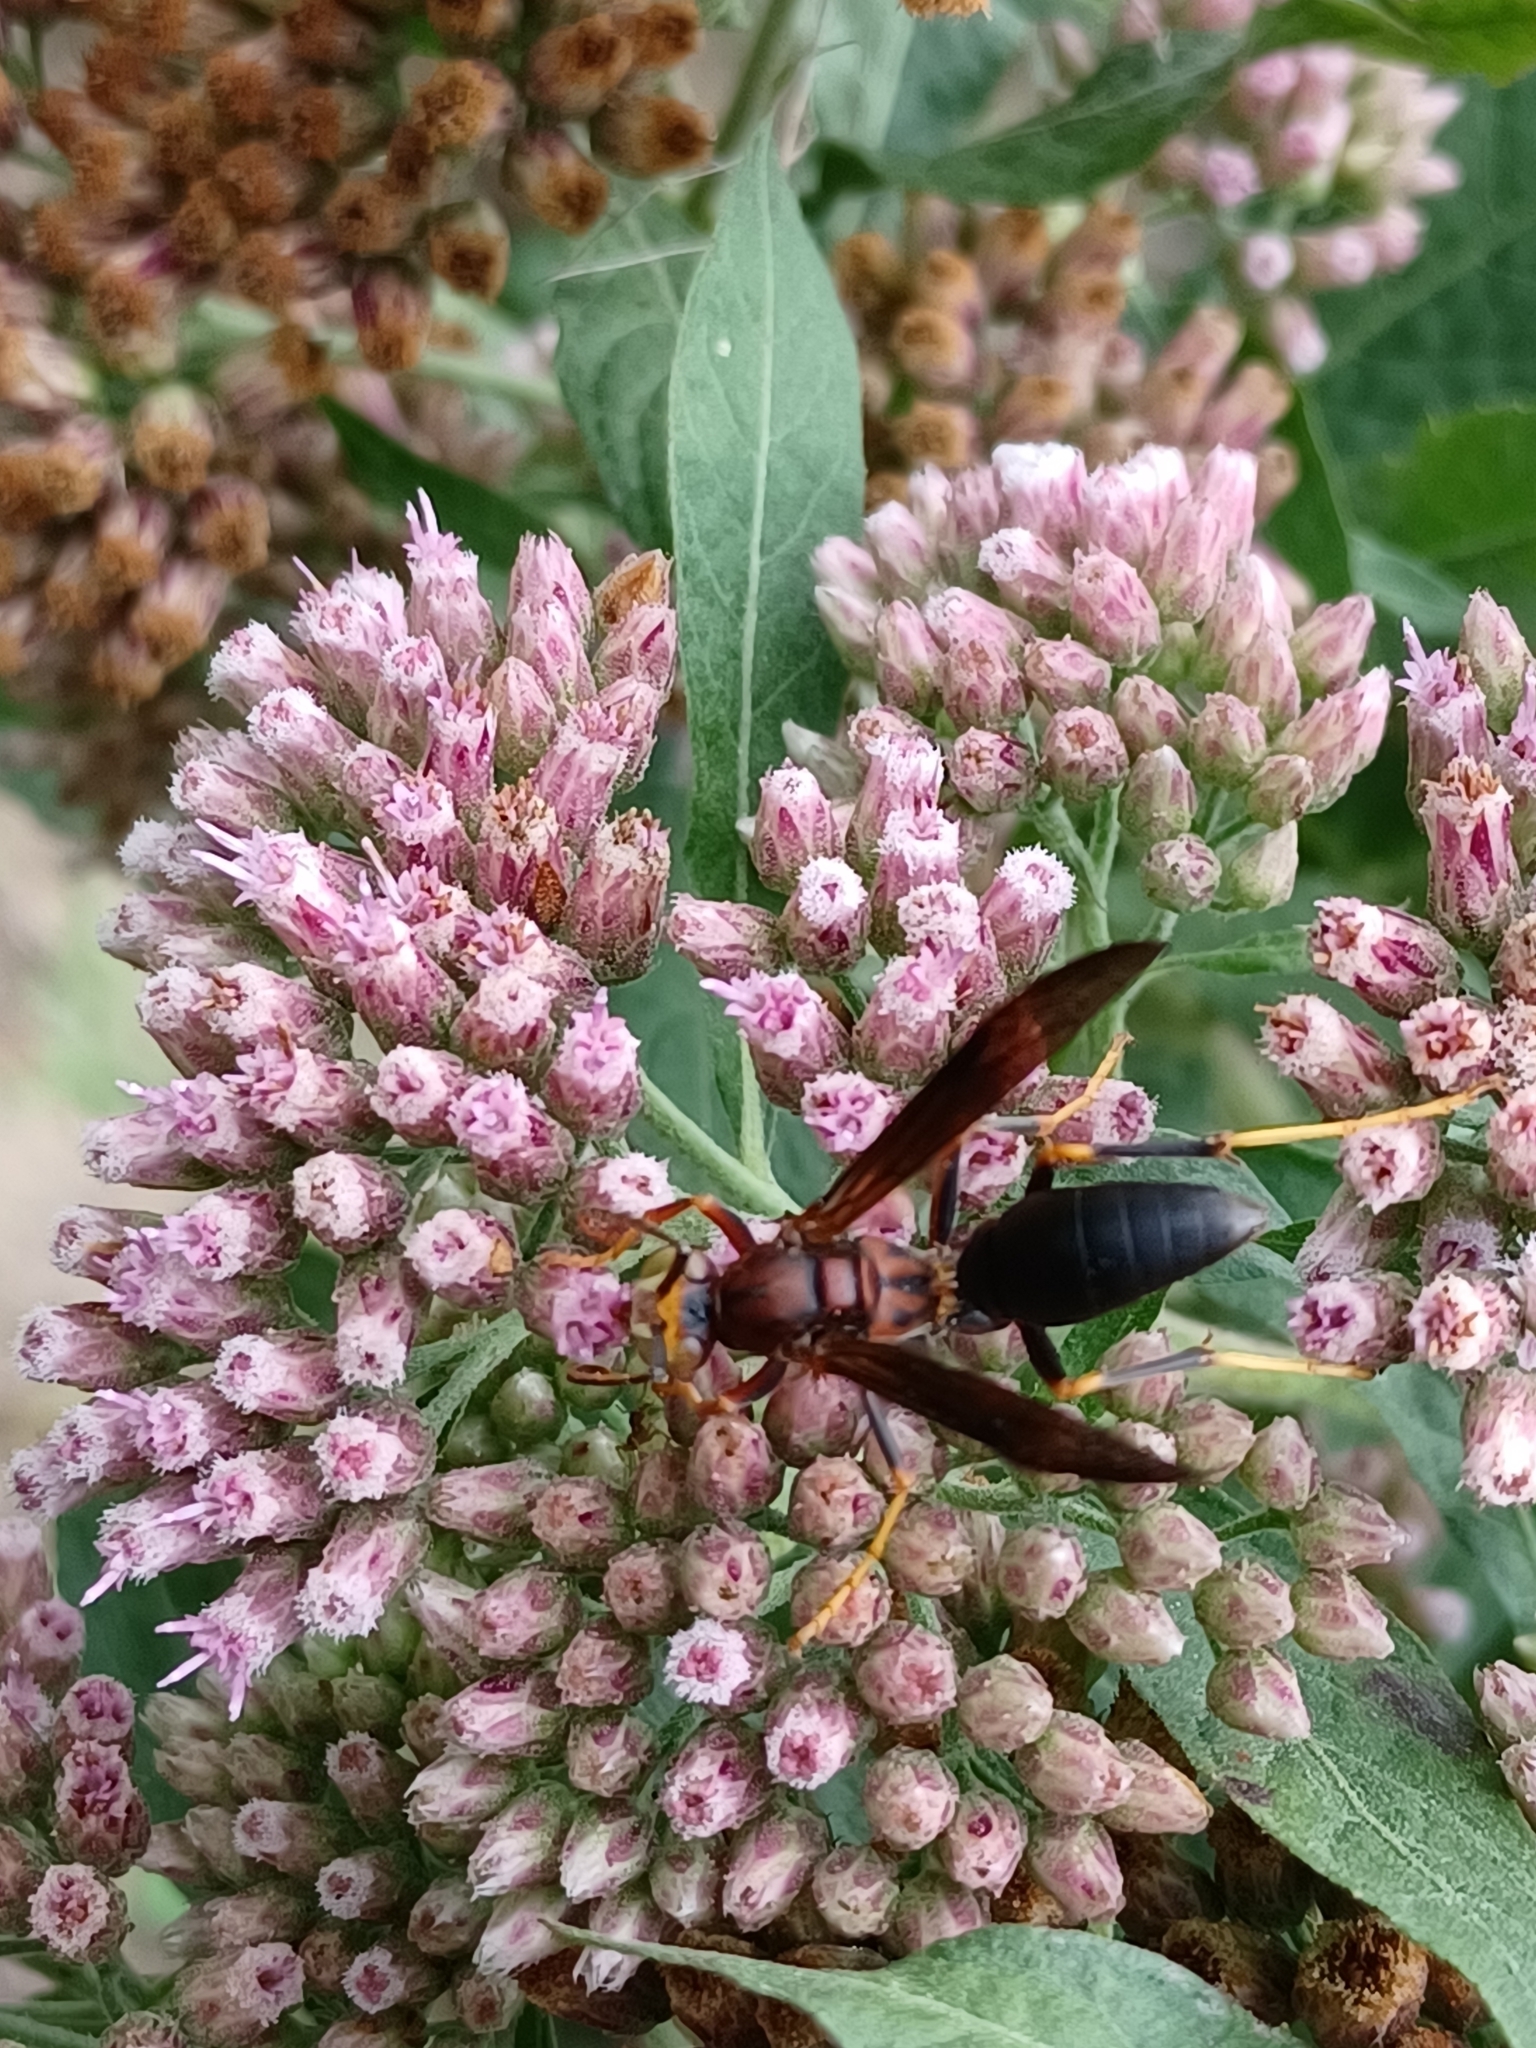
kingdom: Animalia
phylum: Arthropoda
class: Insecta
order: Hymenoptera
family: Eumenidae
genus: Polistes
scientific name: Polistes metricus
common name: Metric paper wasp
